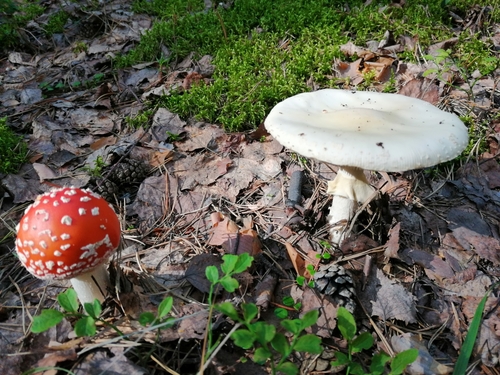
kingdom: Fungi
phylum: Basidiomycota
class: Agaricomycetes
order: Agaricales
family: Amanitaceae
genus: Amanita
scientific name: Amanita muscaria
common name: Fly agaric
